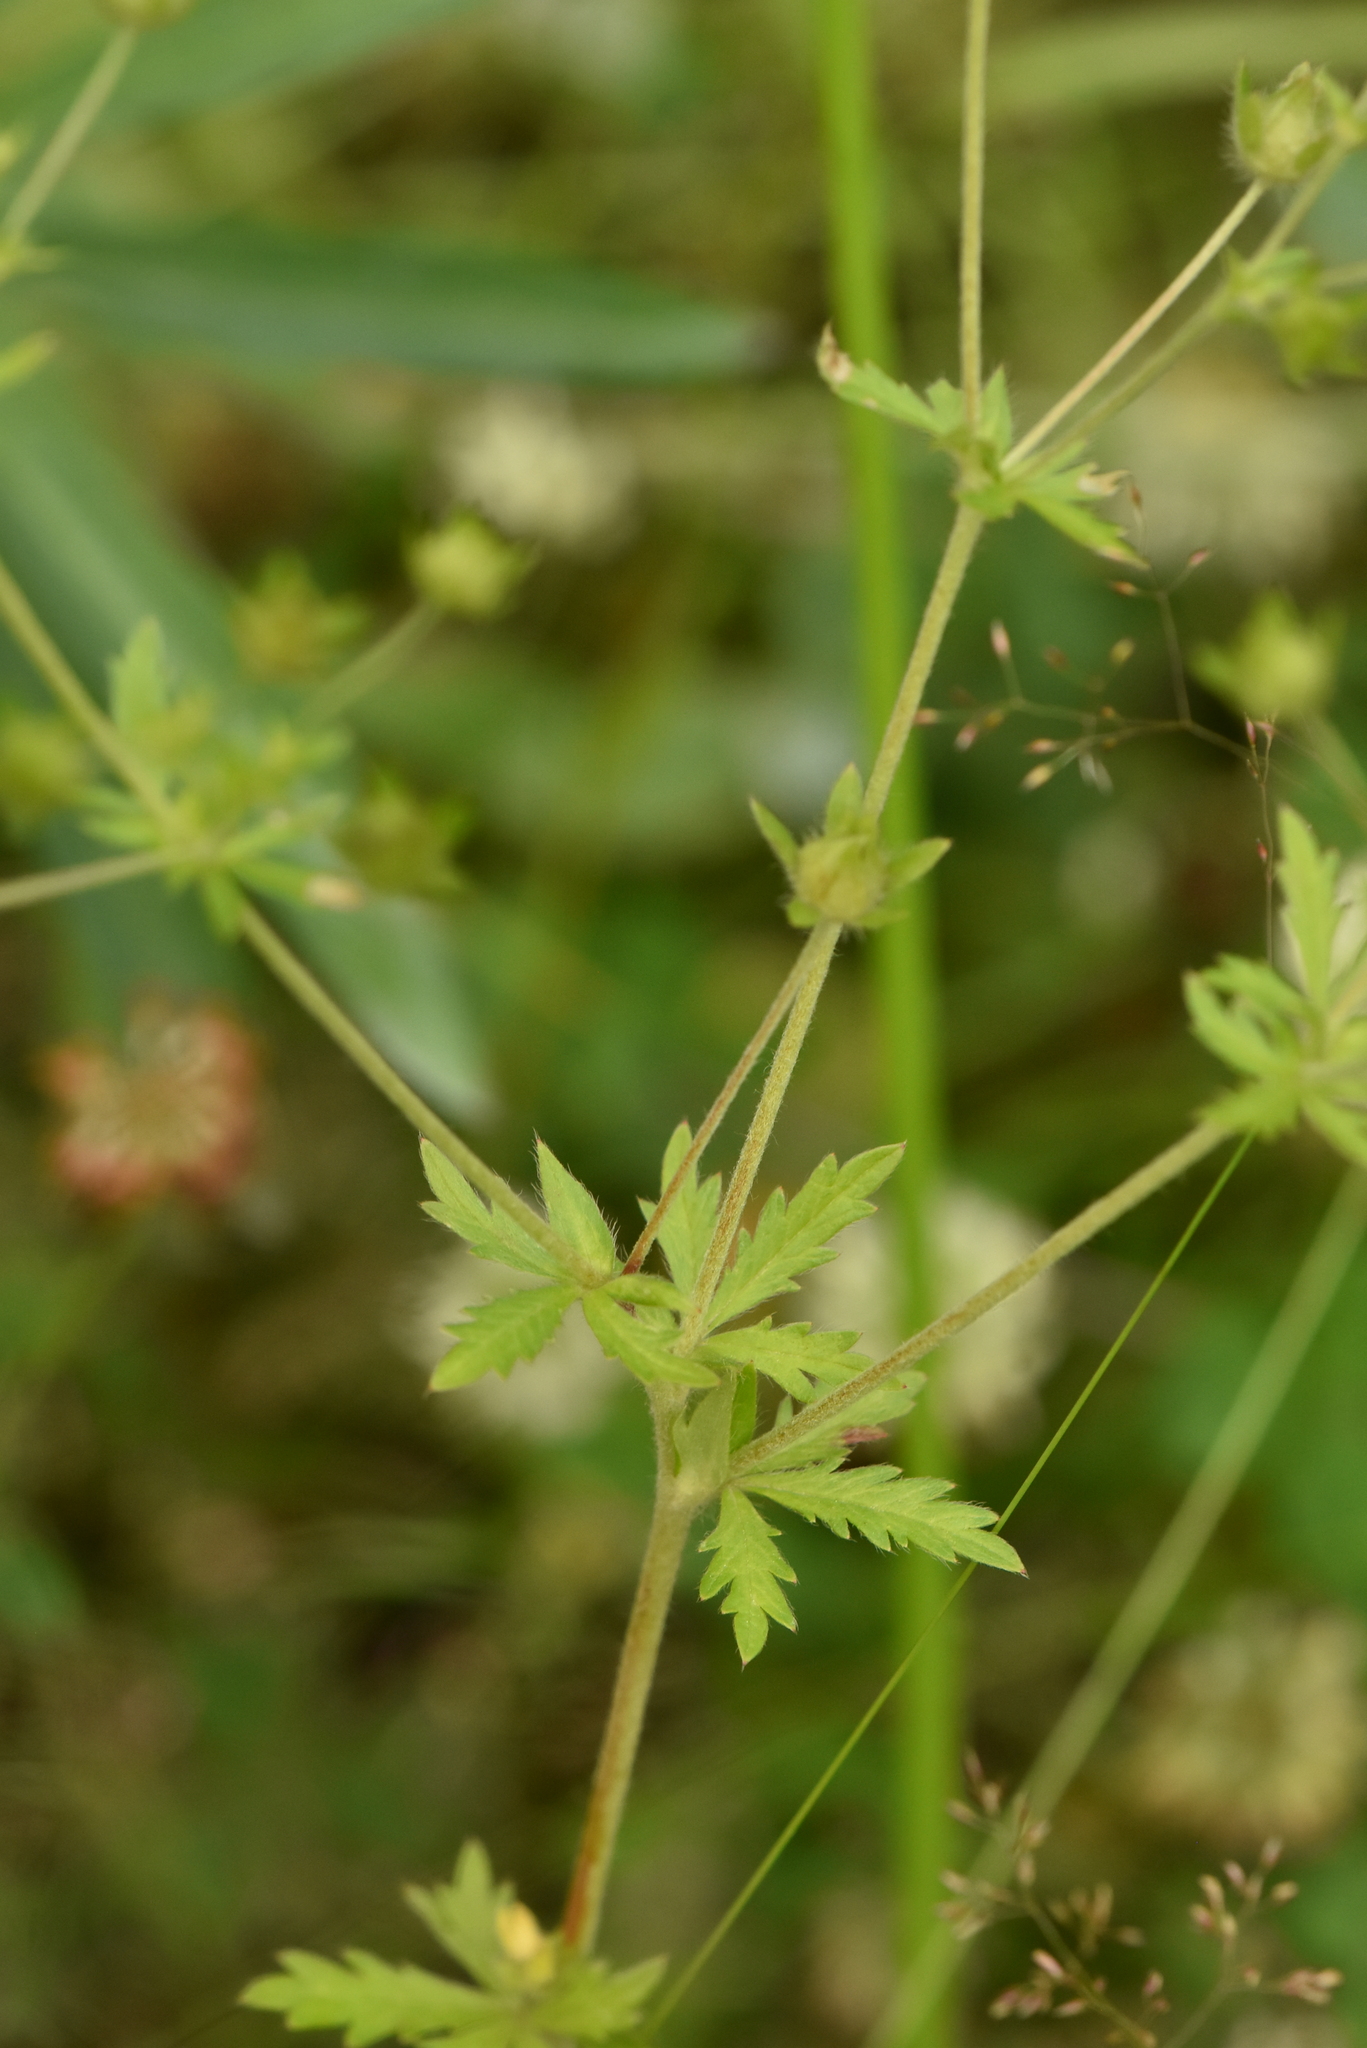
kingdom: Plantae
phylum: Tracheophyta
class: Magnoliopsida
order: Rosales
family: Rosaceae
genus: Potentilla
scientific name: Potentilla intermedia
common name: Downy cinquefoil
